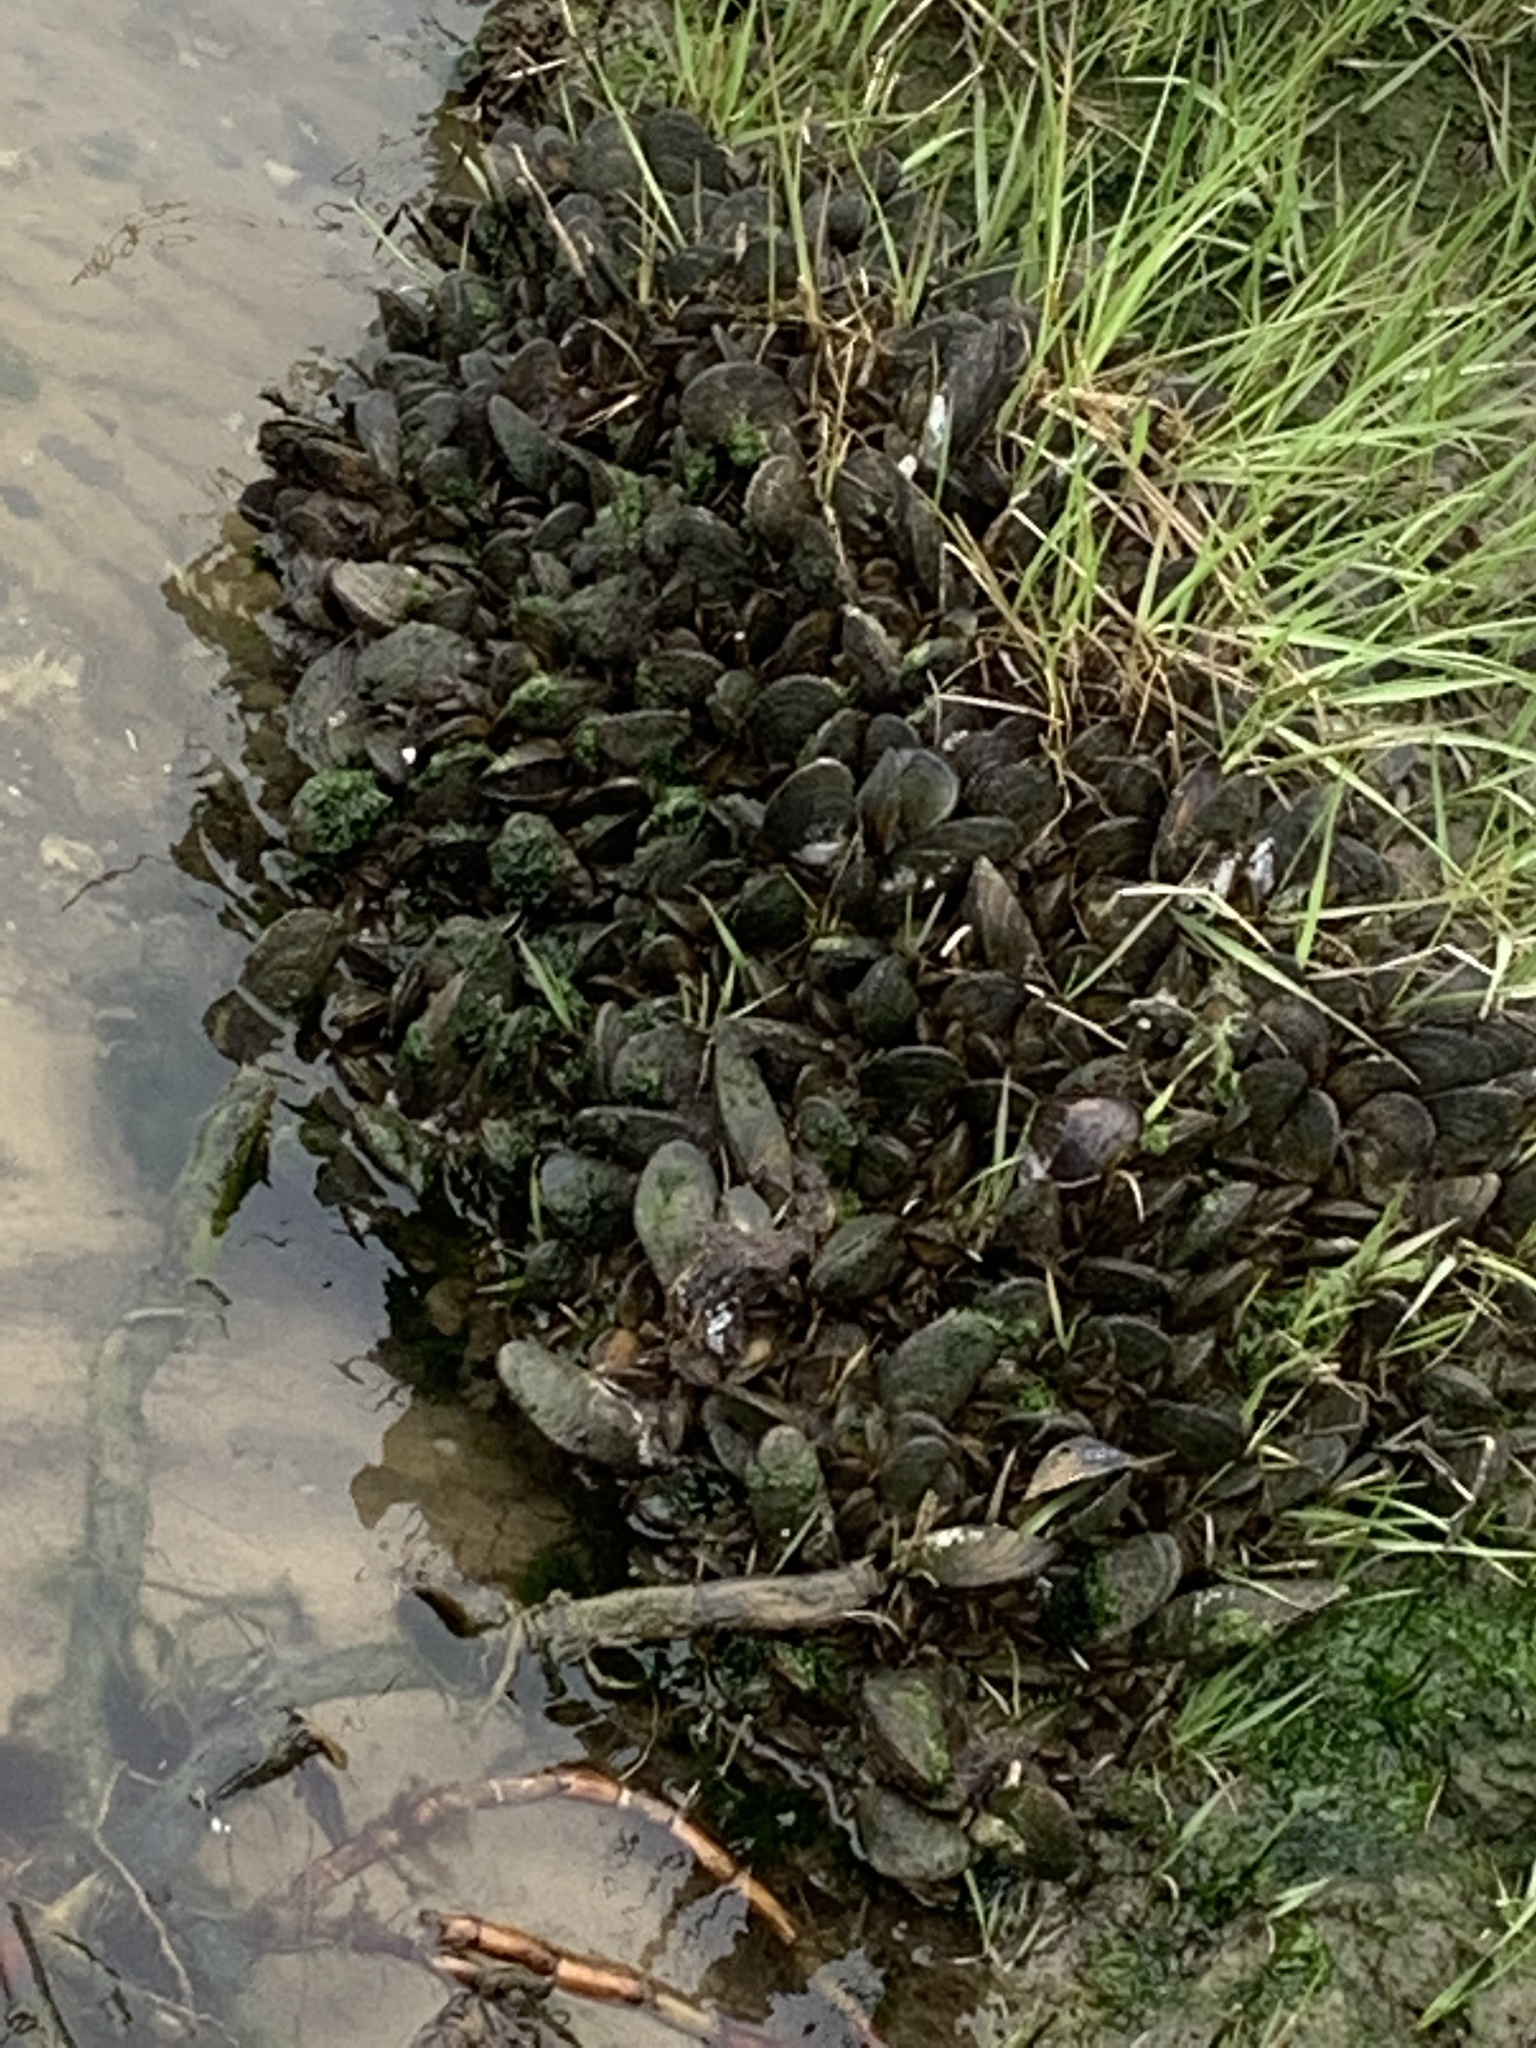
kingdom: Animalia
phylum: Mollusca
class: Bivalvia
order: Mytilida
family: Mytilidae
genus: Geukensia
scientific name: Geukensia demissa
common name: Ribbed mussel
